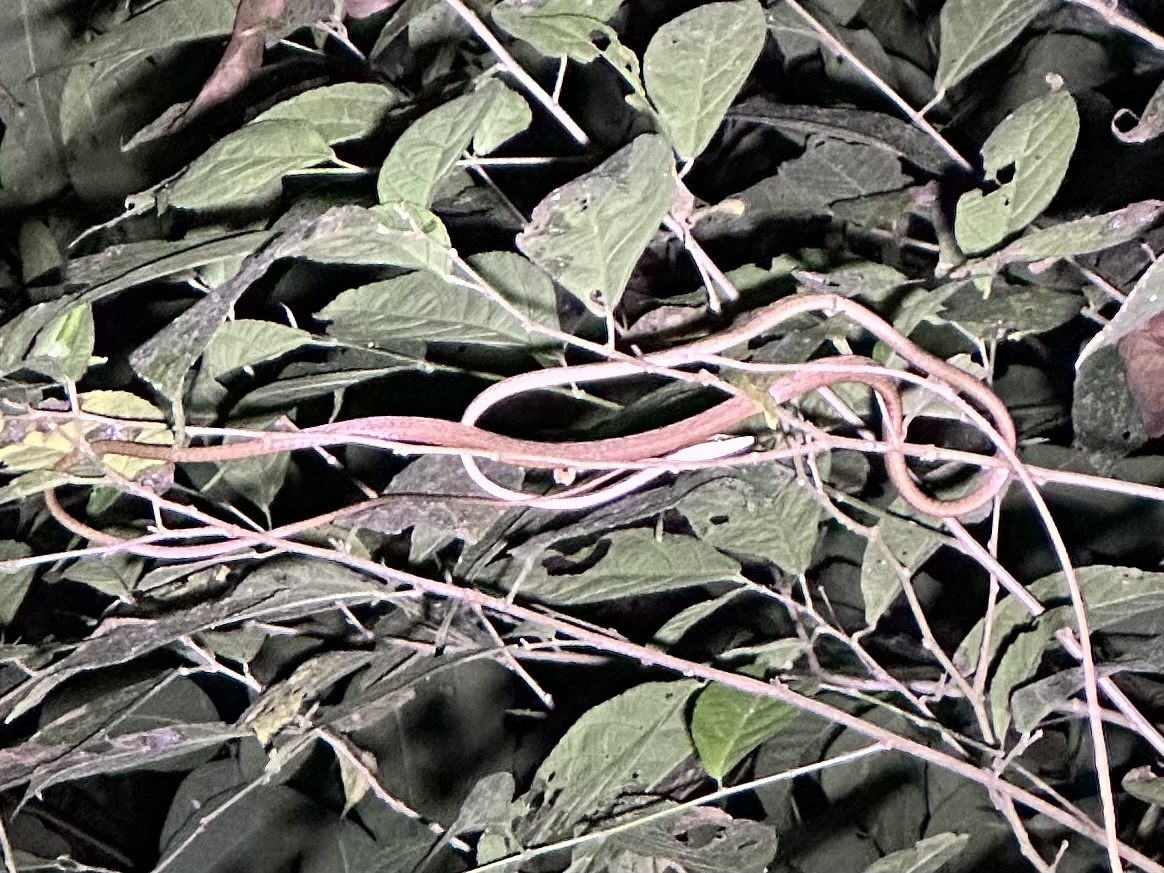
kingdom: Animalia
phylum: Chordata
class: Squamata
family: Colubridae
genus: Oxybelis
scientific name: Oxybelis vittatus
